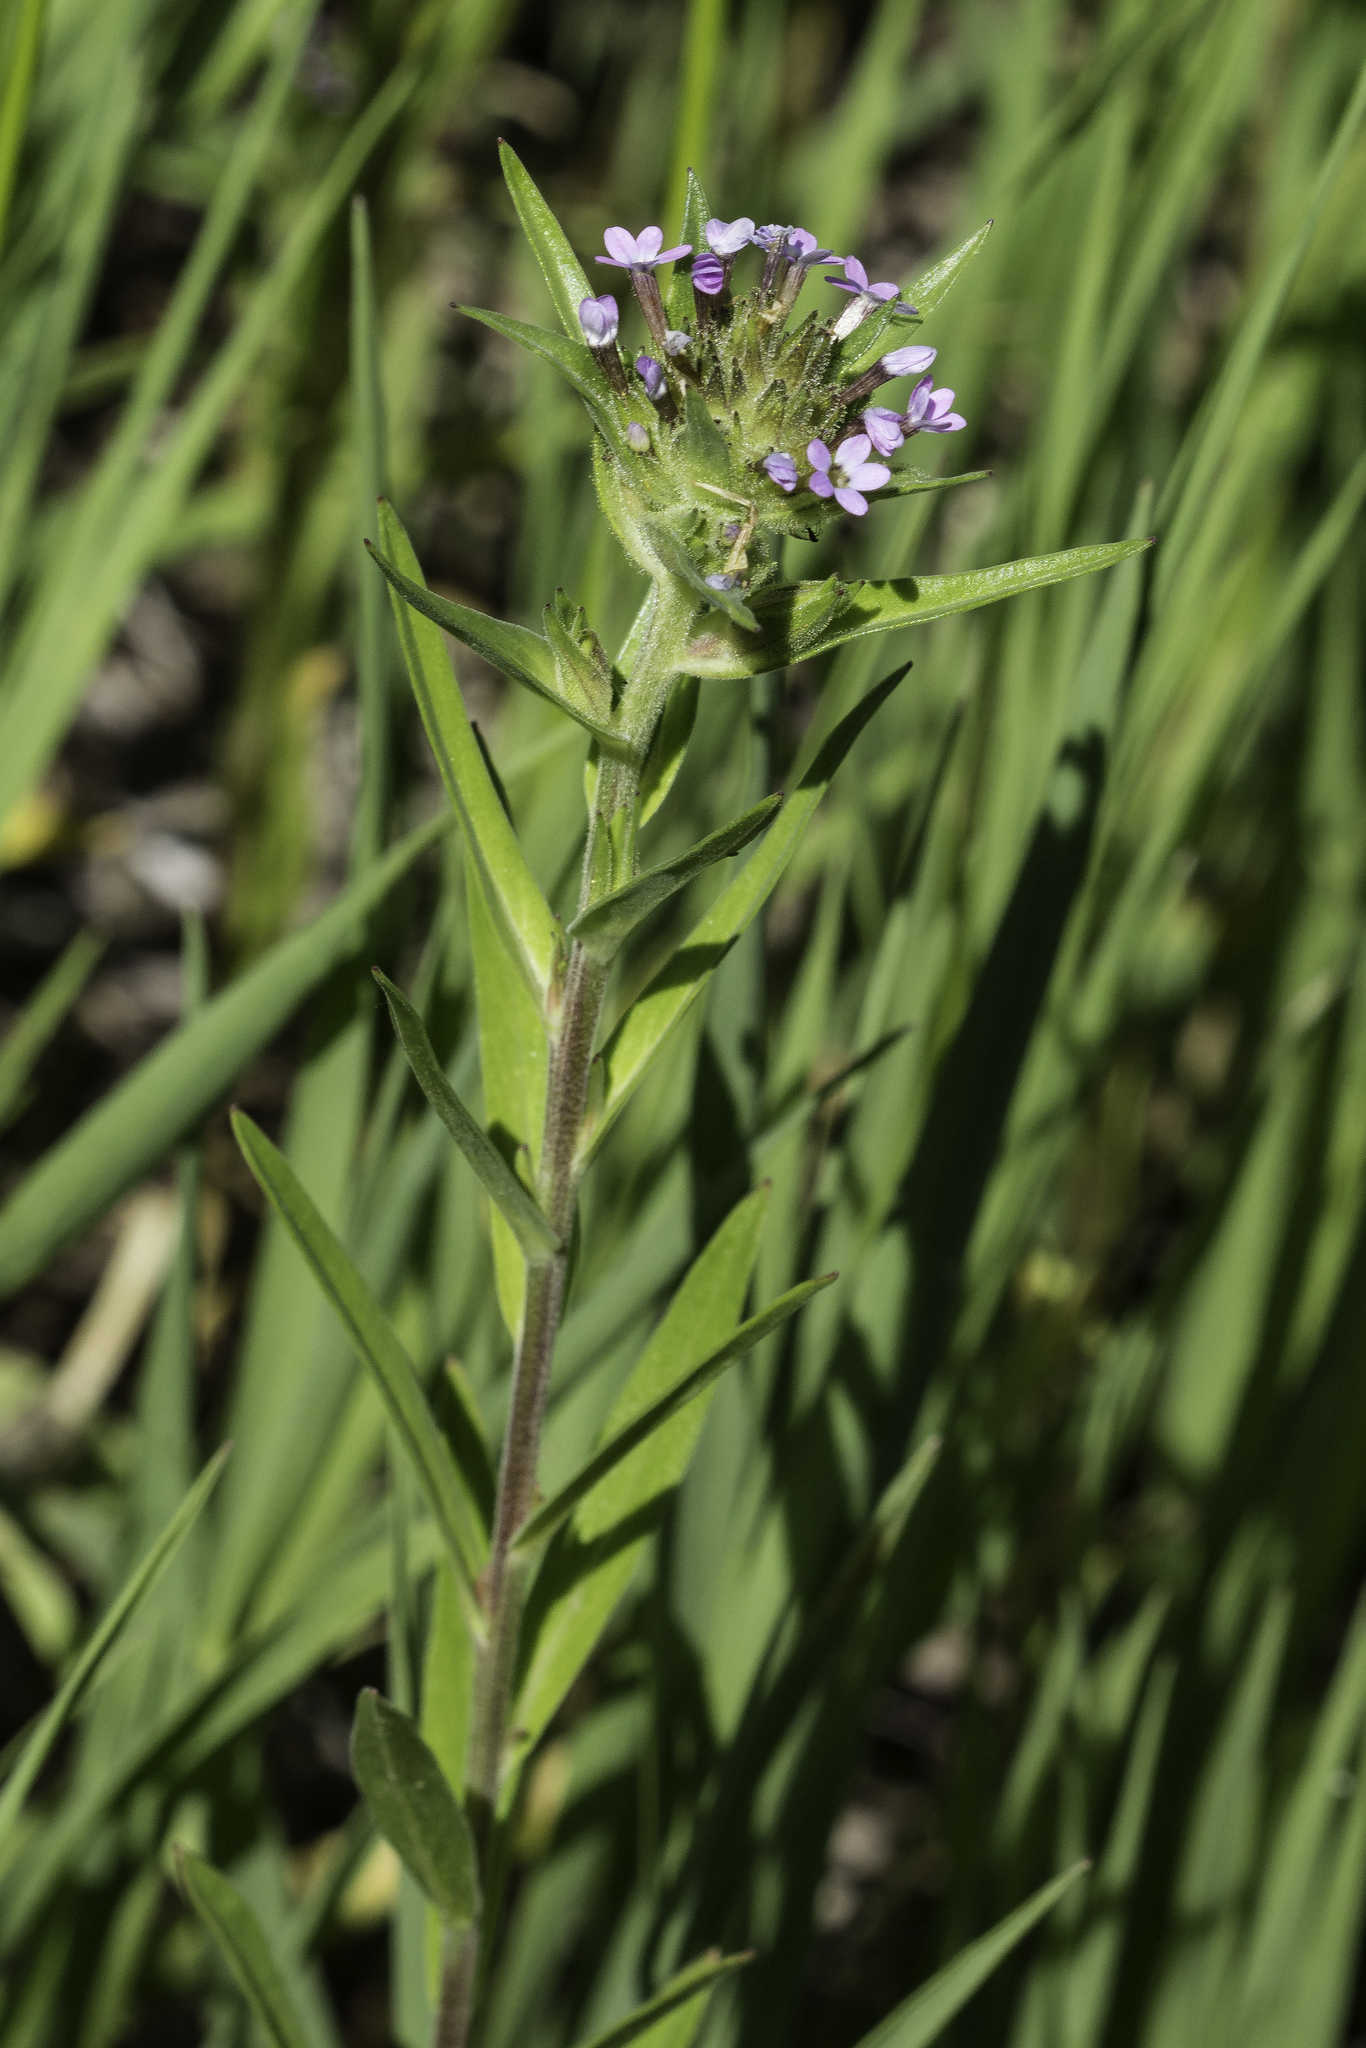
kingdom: Plantae
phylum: Tracheophyta
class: Magnoliopsida
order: Ericales
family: Polemoniaceae
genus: Collomia
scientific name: Collomia linearis
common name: Tiny trumpet
